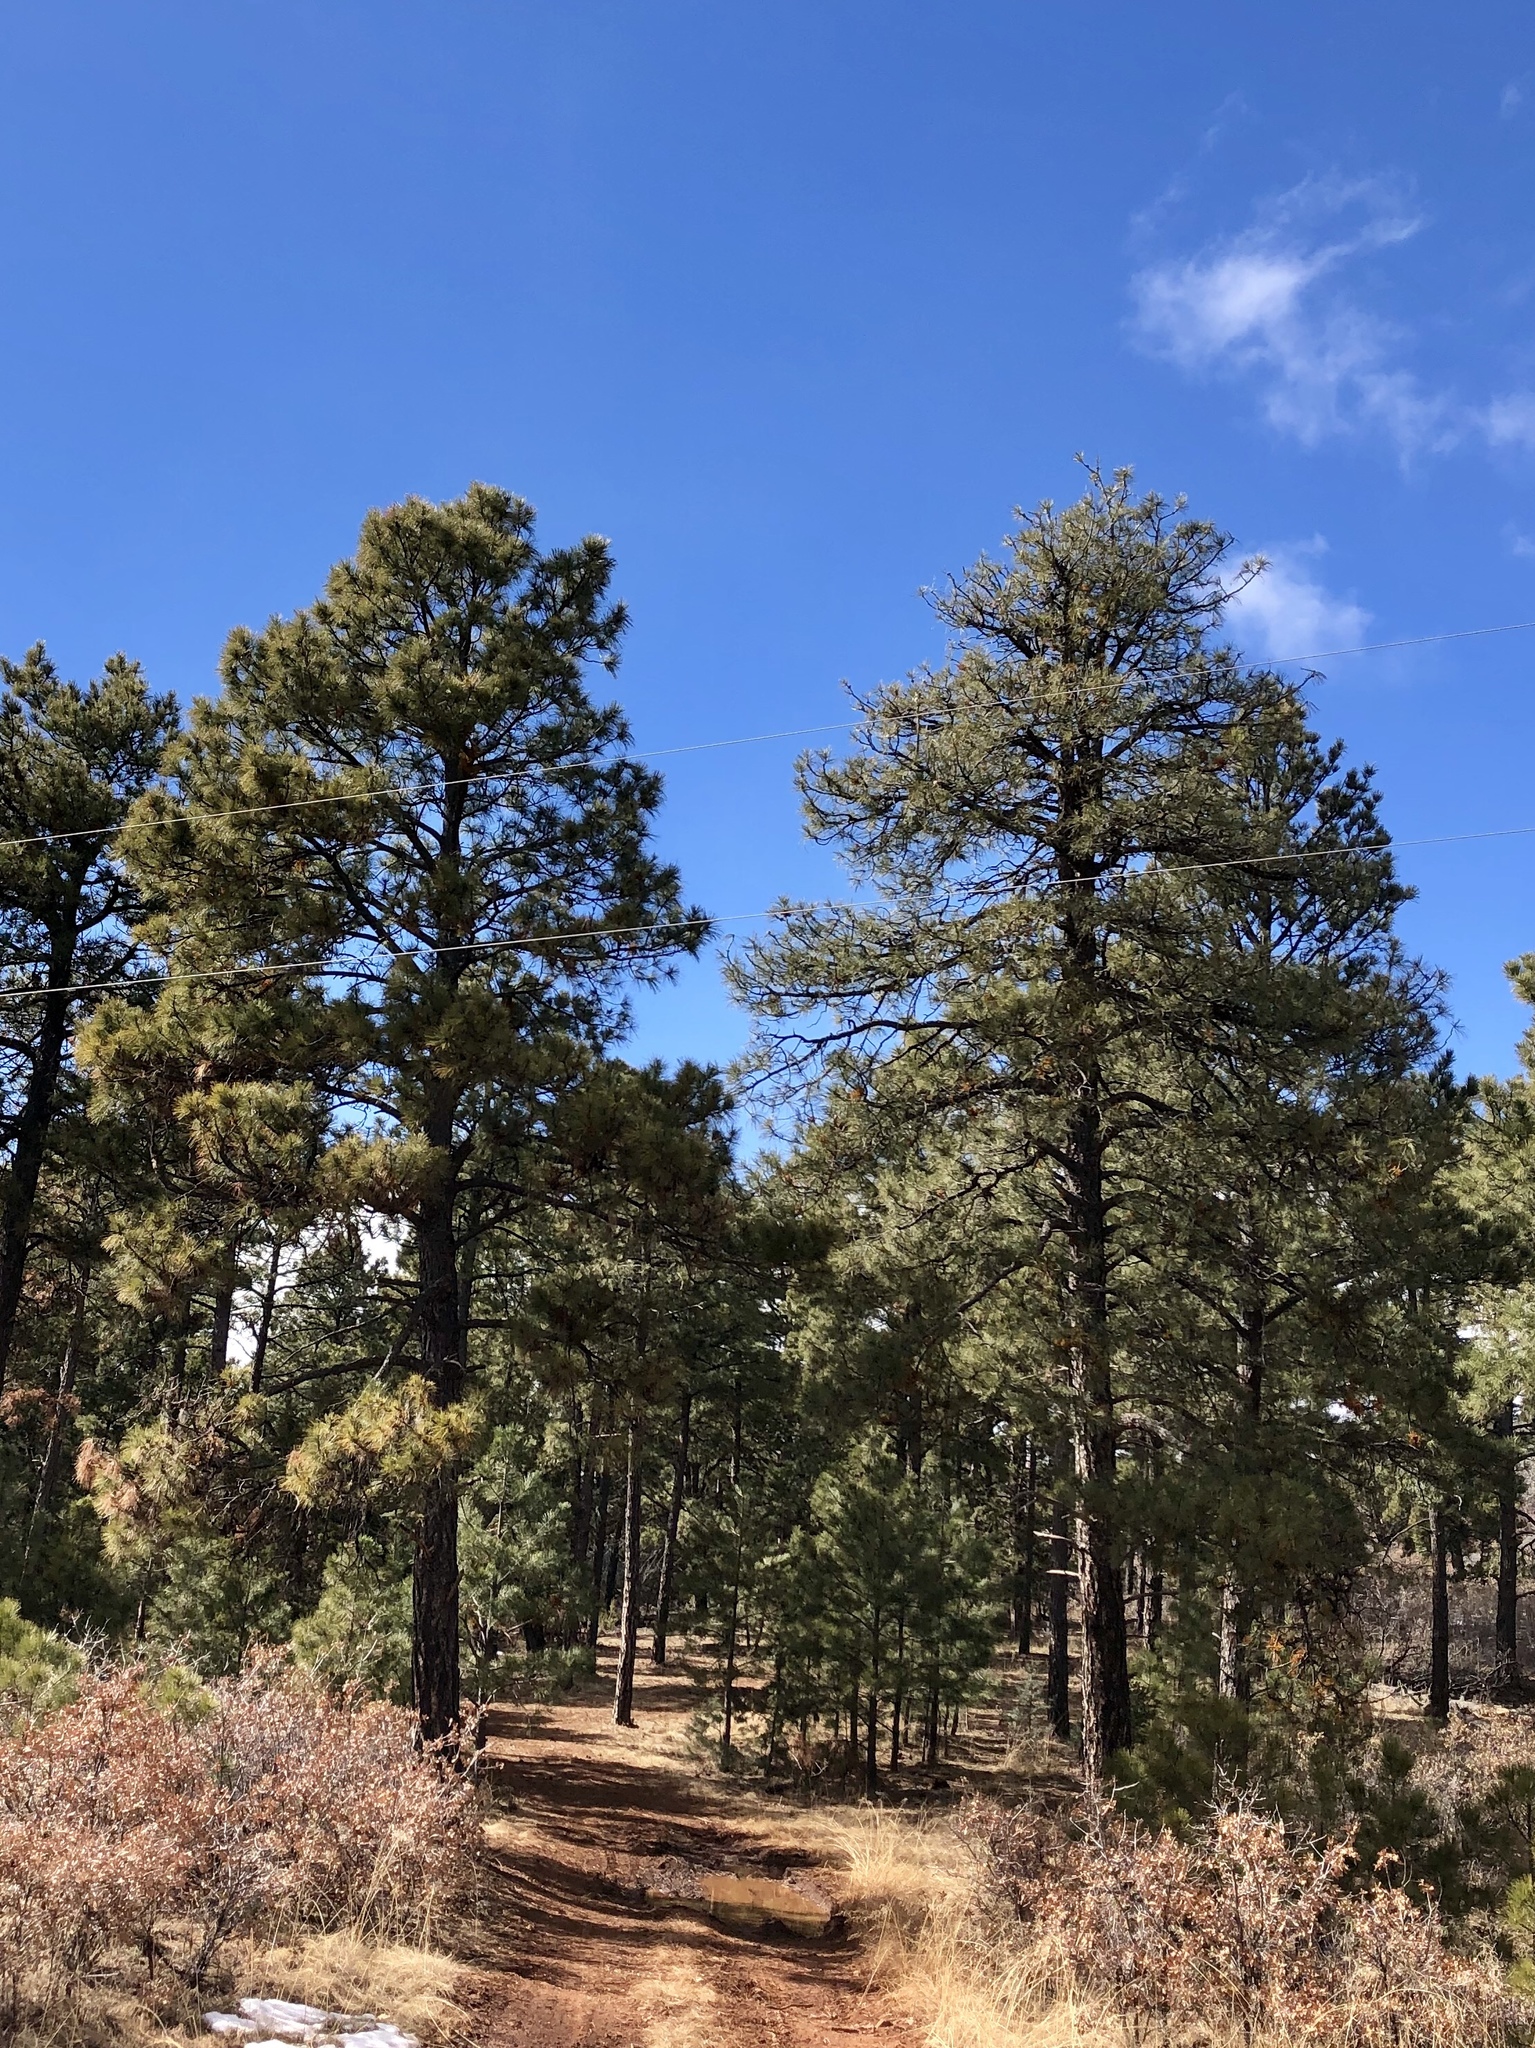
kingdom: Plantae
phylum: Tracheophyta
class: Pinopsida
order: Pinales
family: Pinaceae
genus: Pinus
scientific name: Pinus ponderosa
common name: Western yellow-pine
